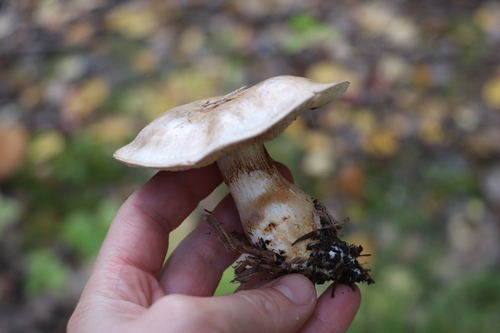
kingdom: Fungi
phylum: Basidiomycota
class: Agaricomycetes
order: Agaricales
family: Cortinariaceae
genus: Phlegmacium
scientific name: Phlegmacium argutum
